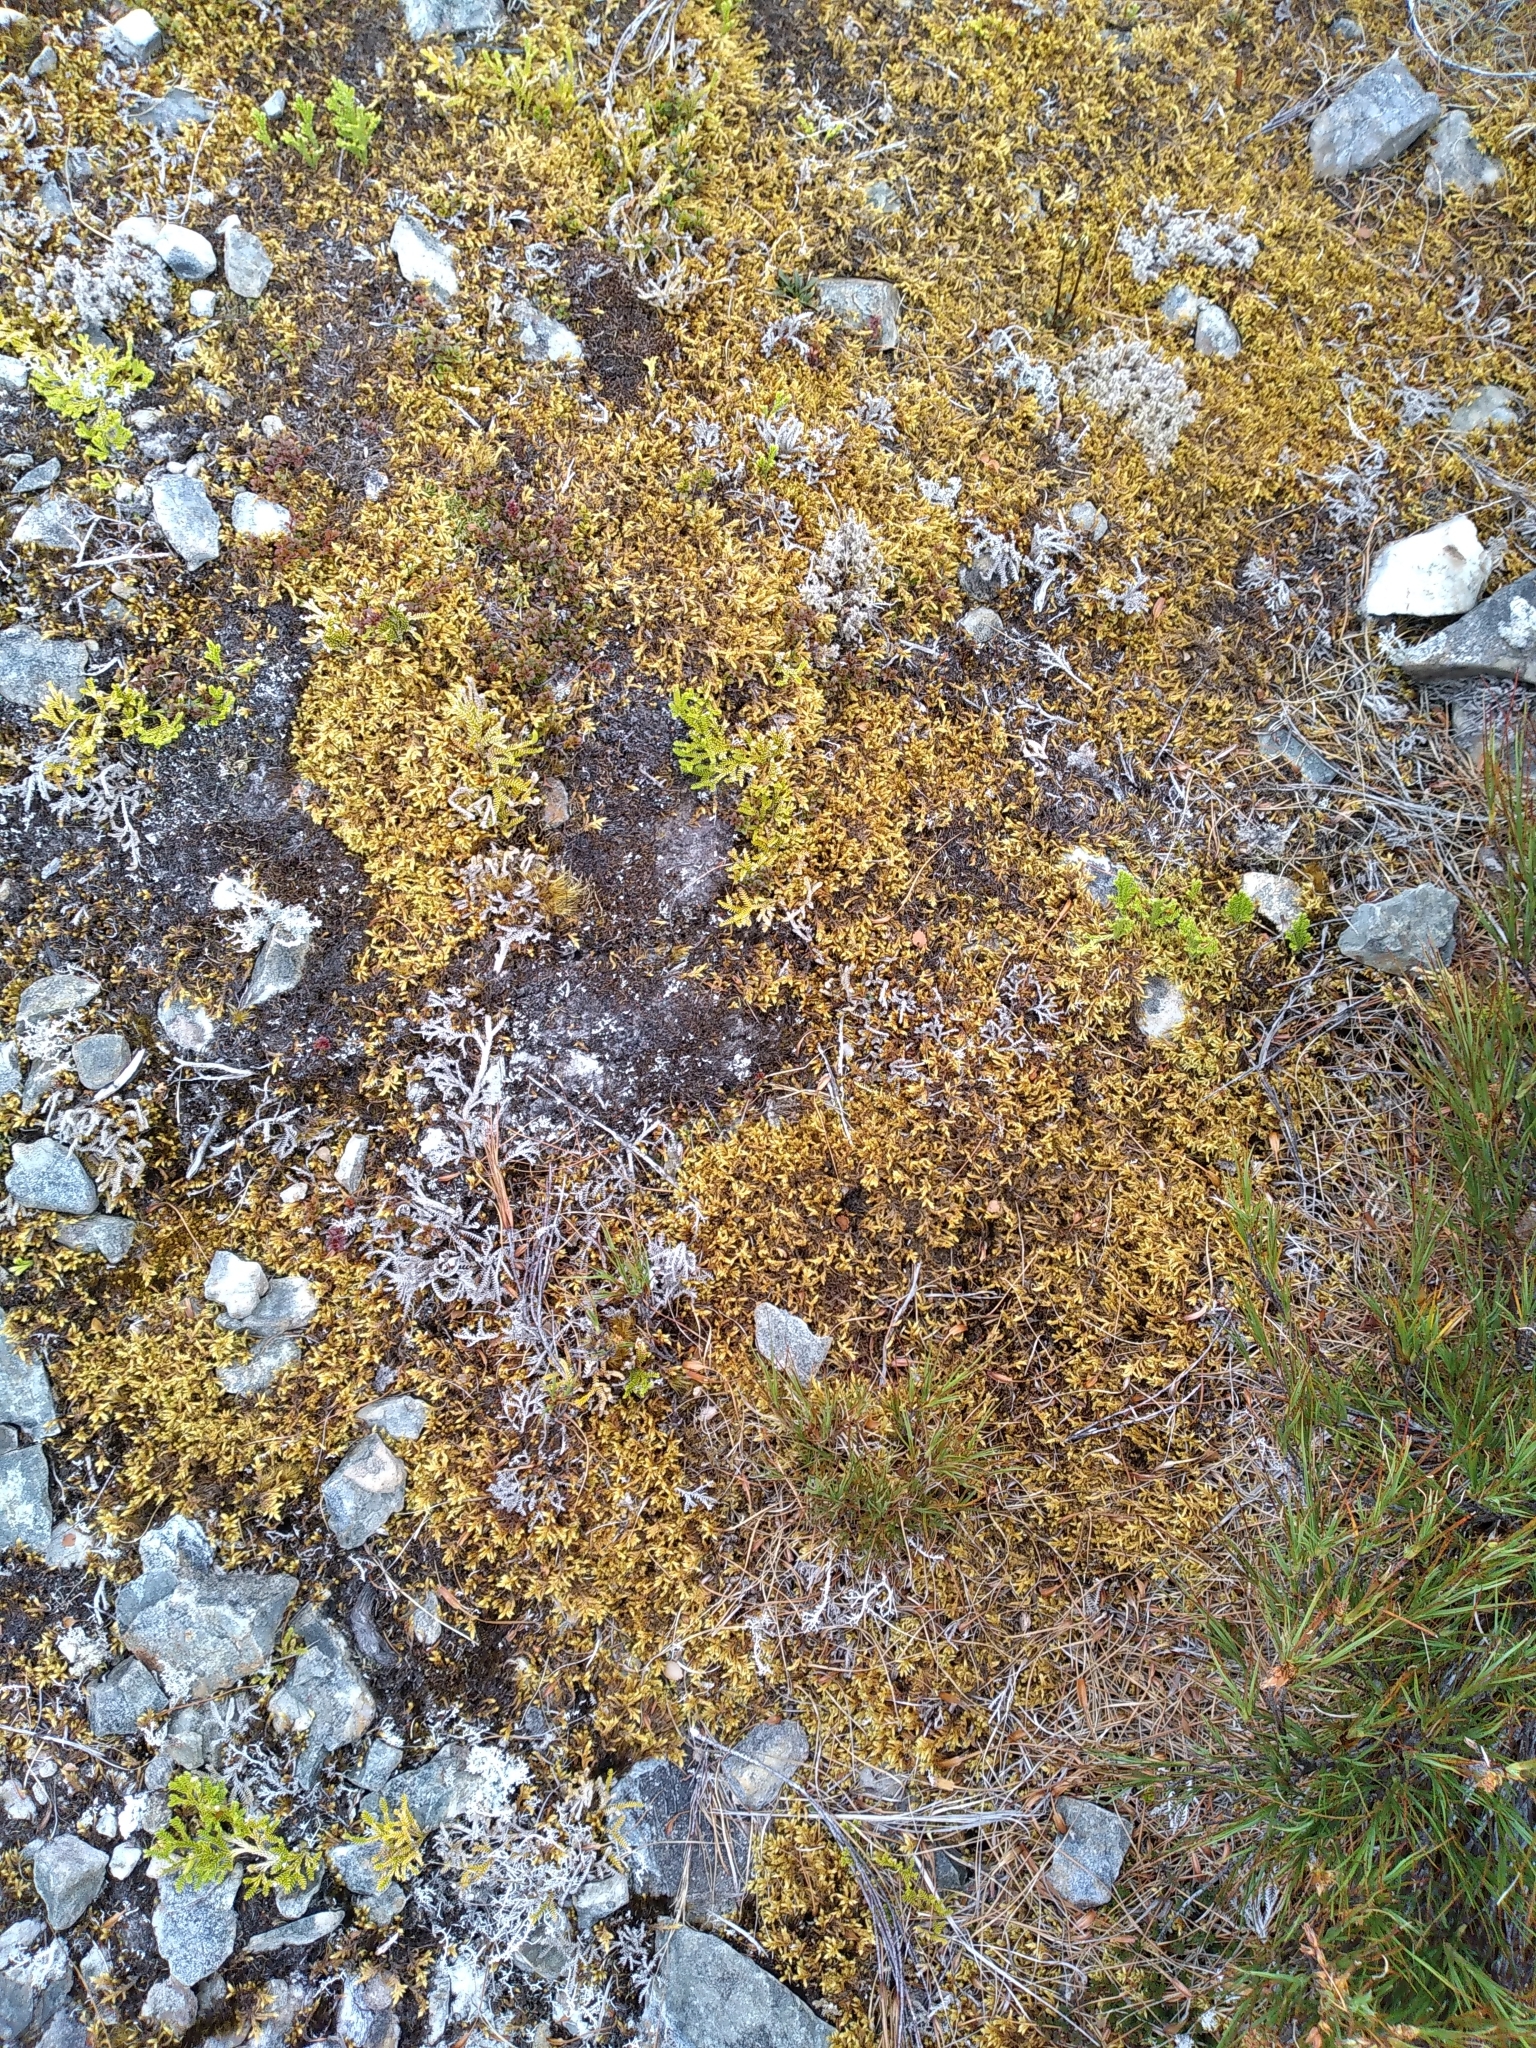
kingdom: Plantae
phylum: Bryophyta
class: Bryopsida
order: Hedwigiales
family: Hedwigiaceae
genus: Rhacocarpus
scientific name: Rhacocarpus purpurascens
